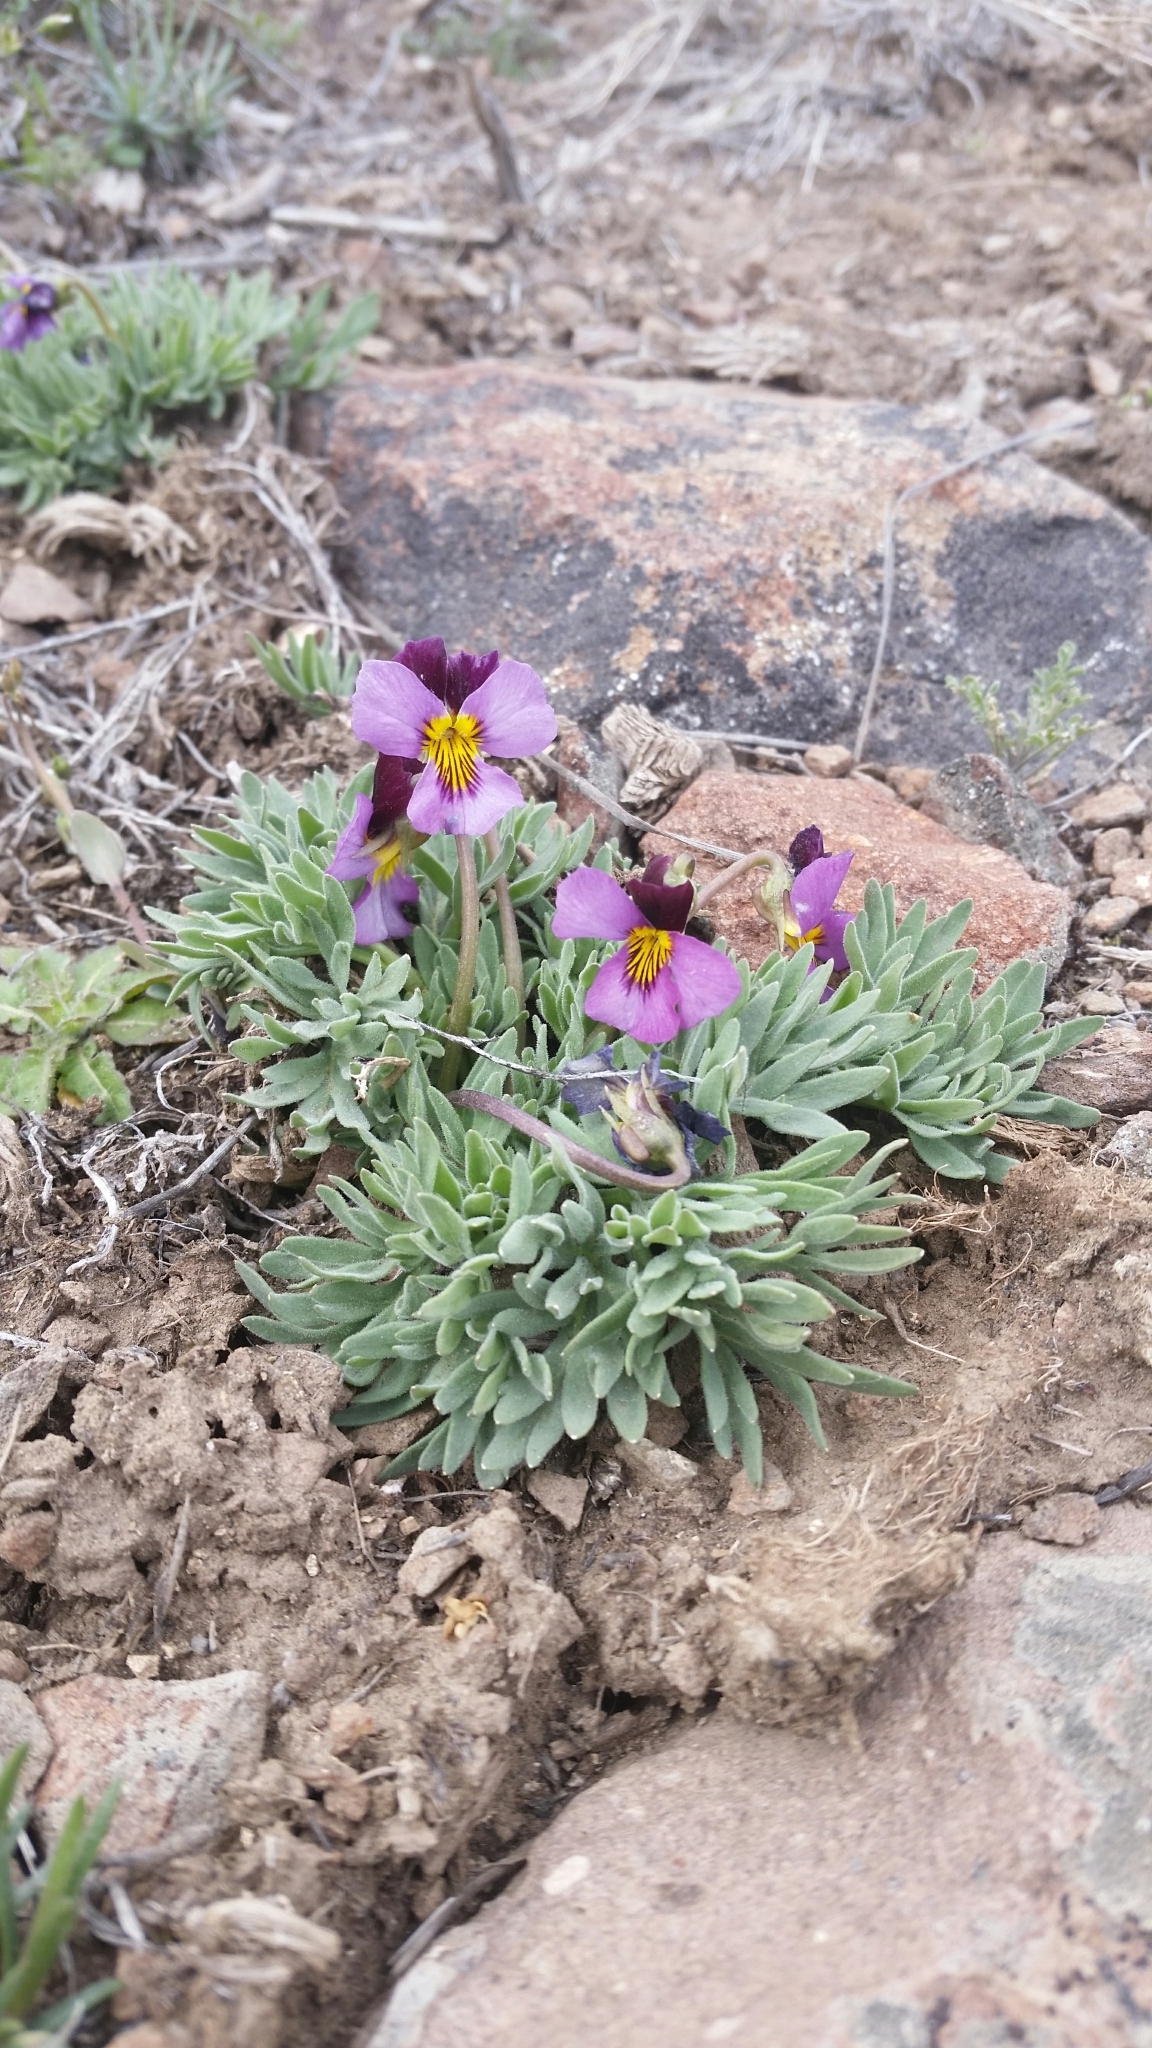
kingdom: Plantae
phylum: Tracheophyta
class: Magnoliopsida
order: Malpighiales
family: Violaceae
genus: Viola
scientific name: Viola beckwithii
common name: Beckwith's violet
